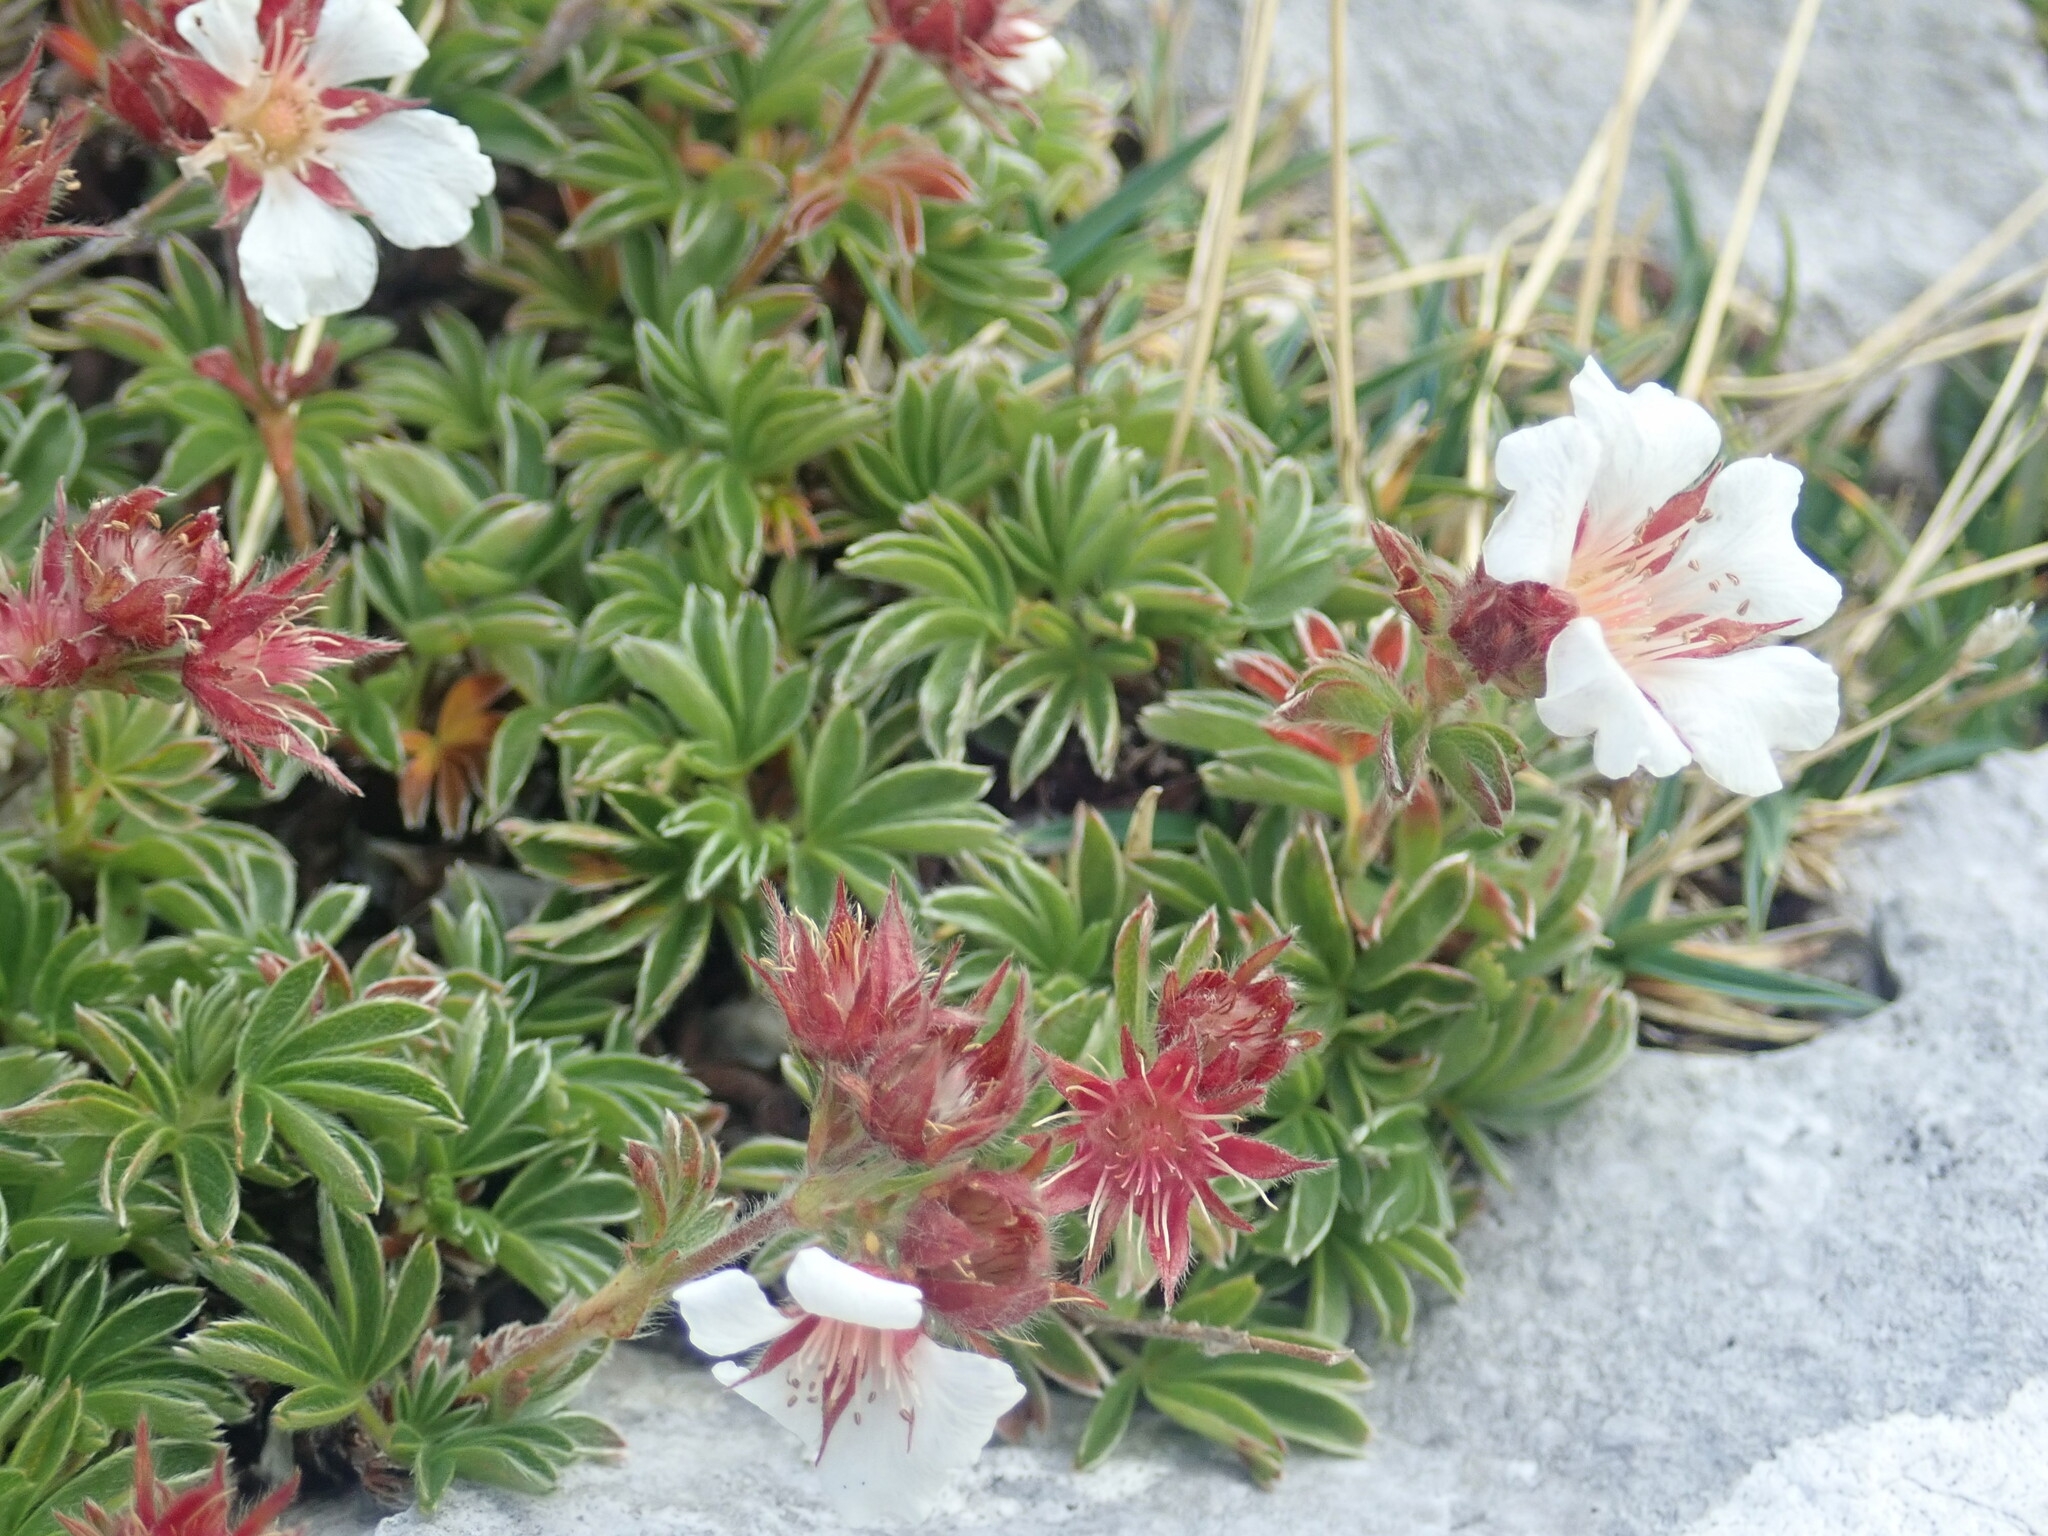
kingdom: Plantae
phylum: Tracheophyta
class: Magnoliopsida
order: Rosales
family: Rosaceae
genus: Potentilla
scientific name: Potentilla clusiana
